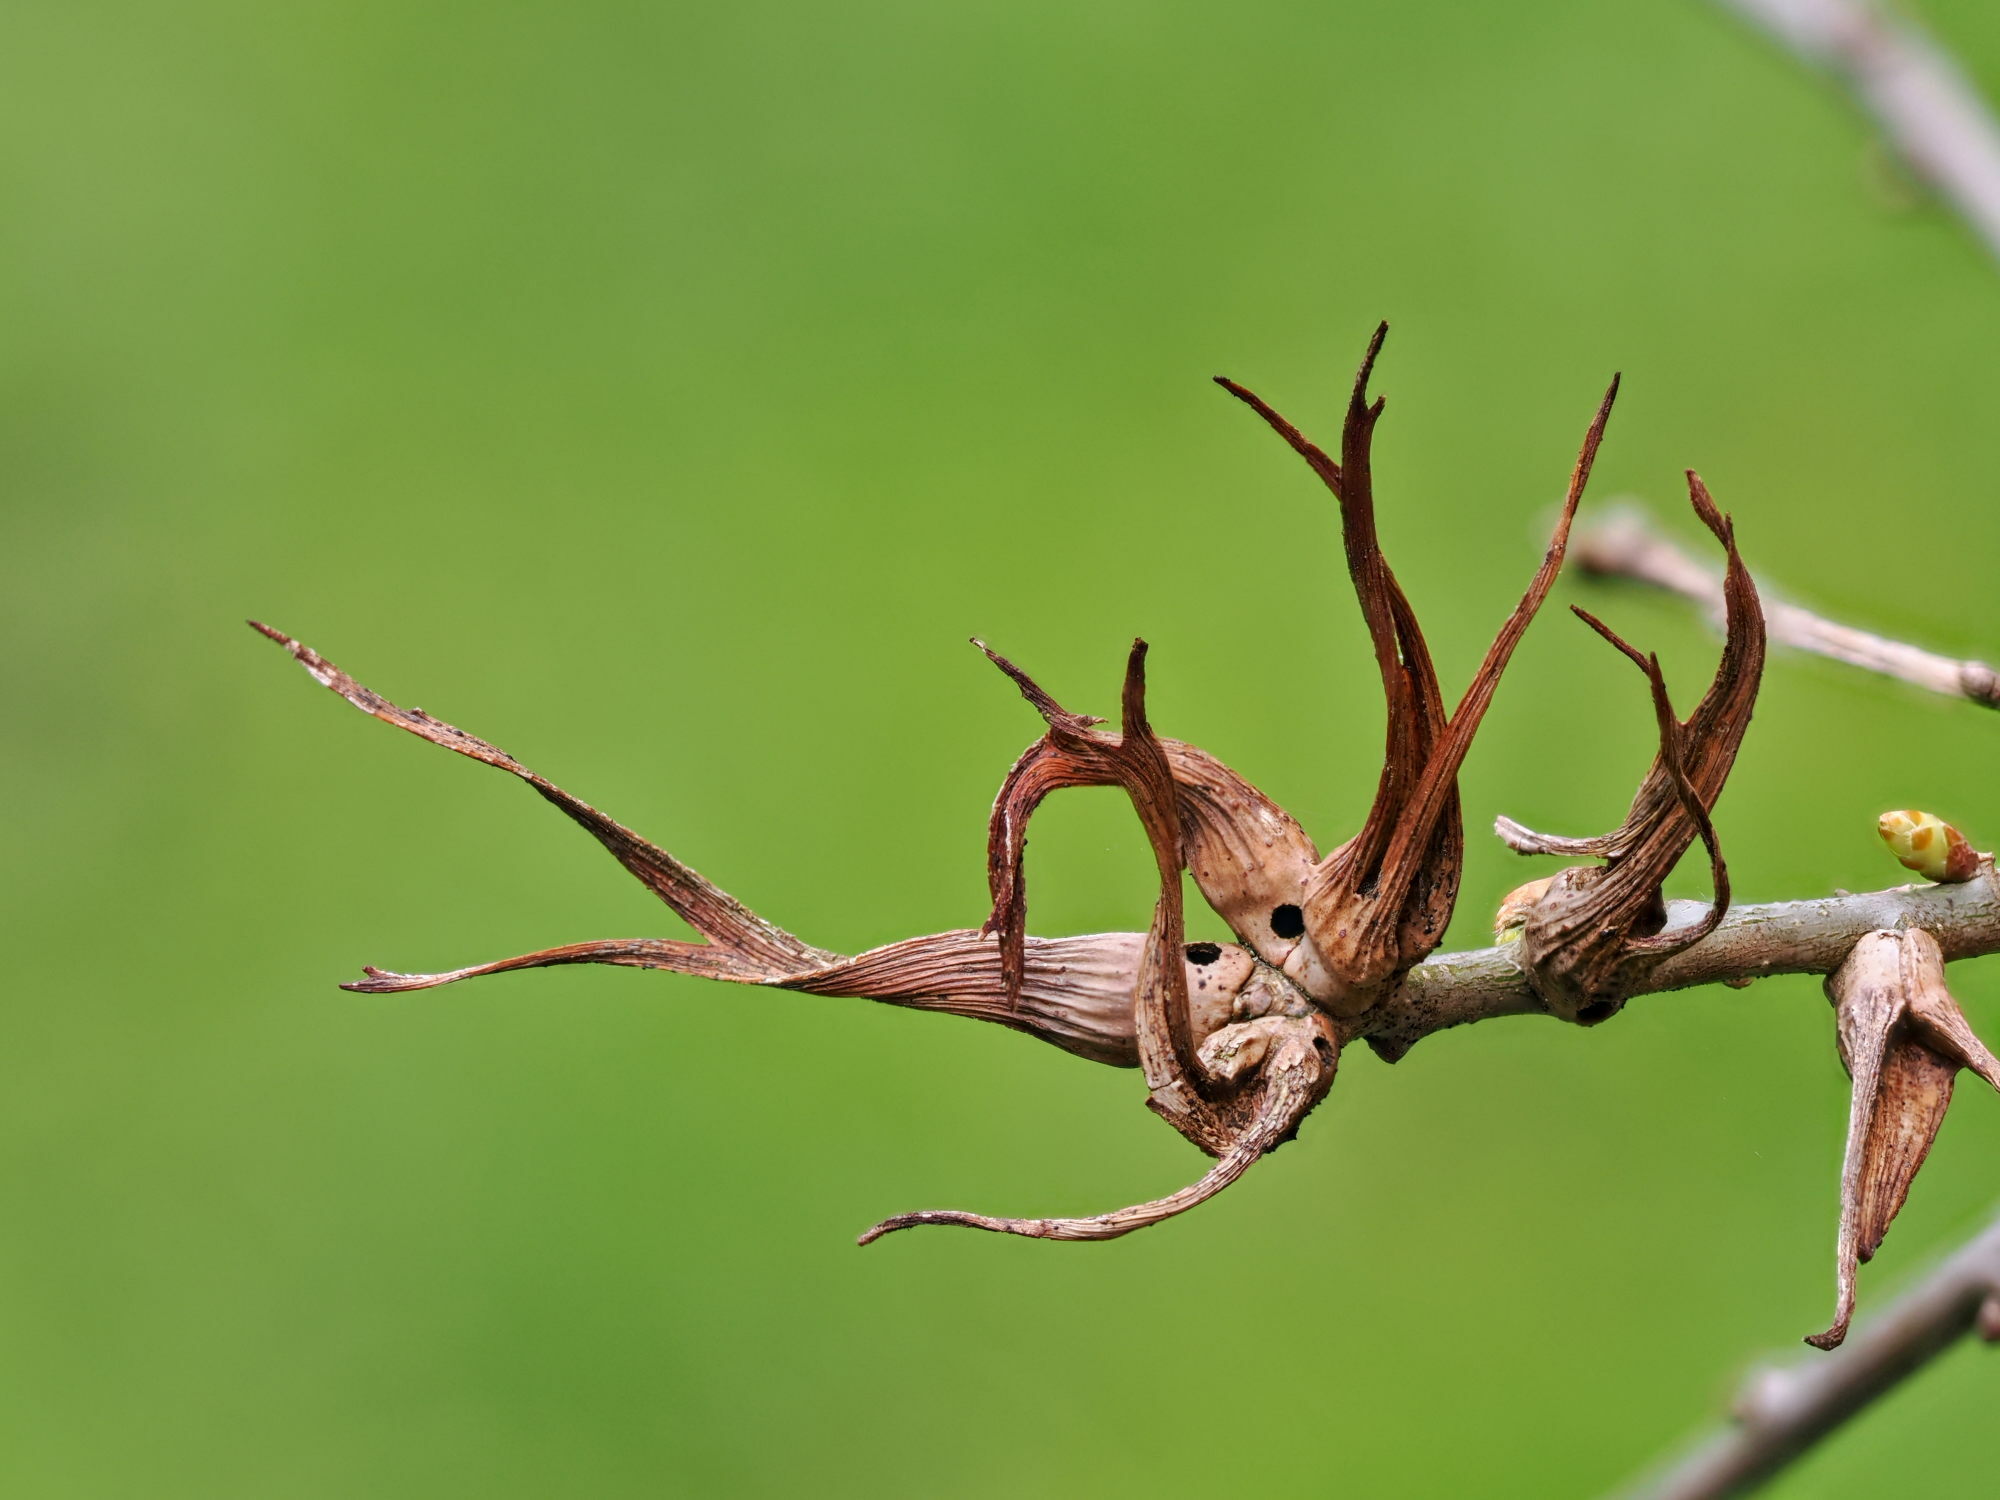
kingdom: Animalia
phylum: Arthropoda
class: Insecta
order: Hymenoptera
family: Cynipidae
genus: Andricus
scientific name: Andricus aries
